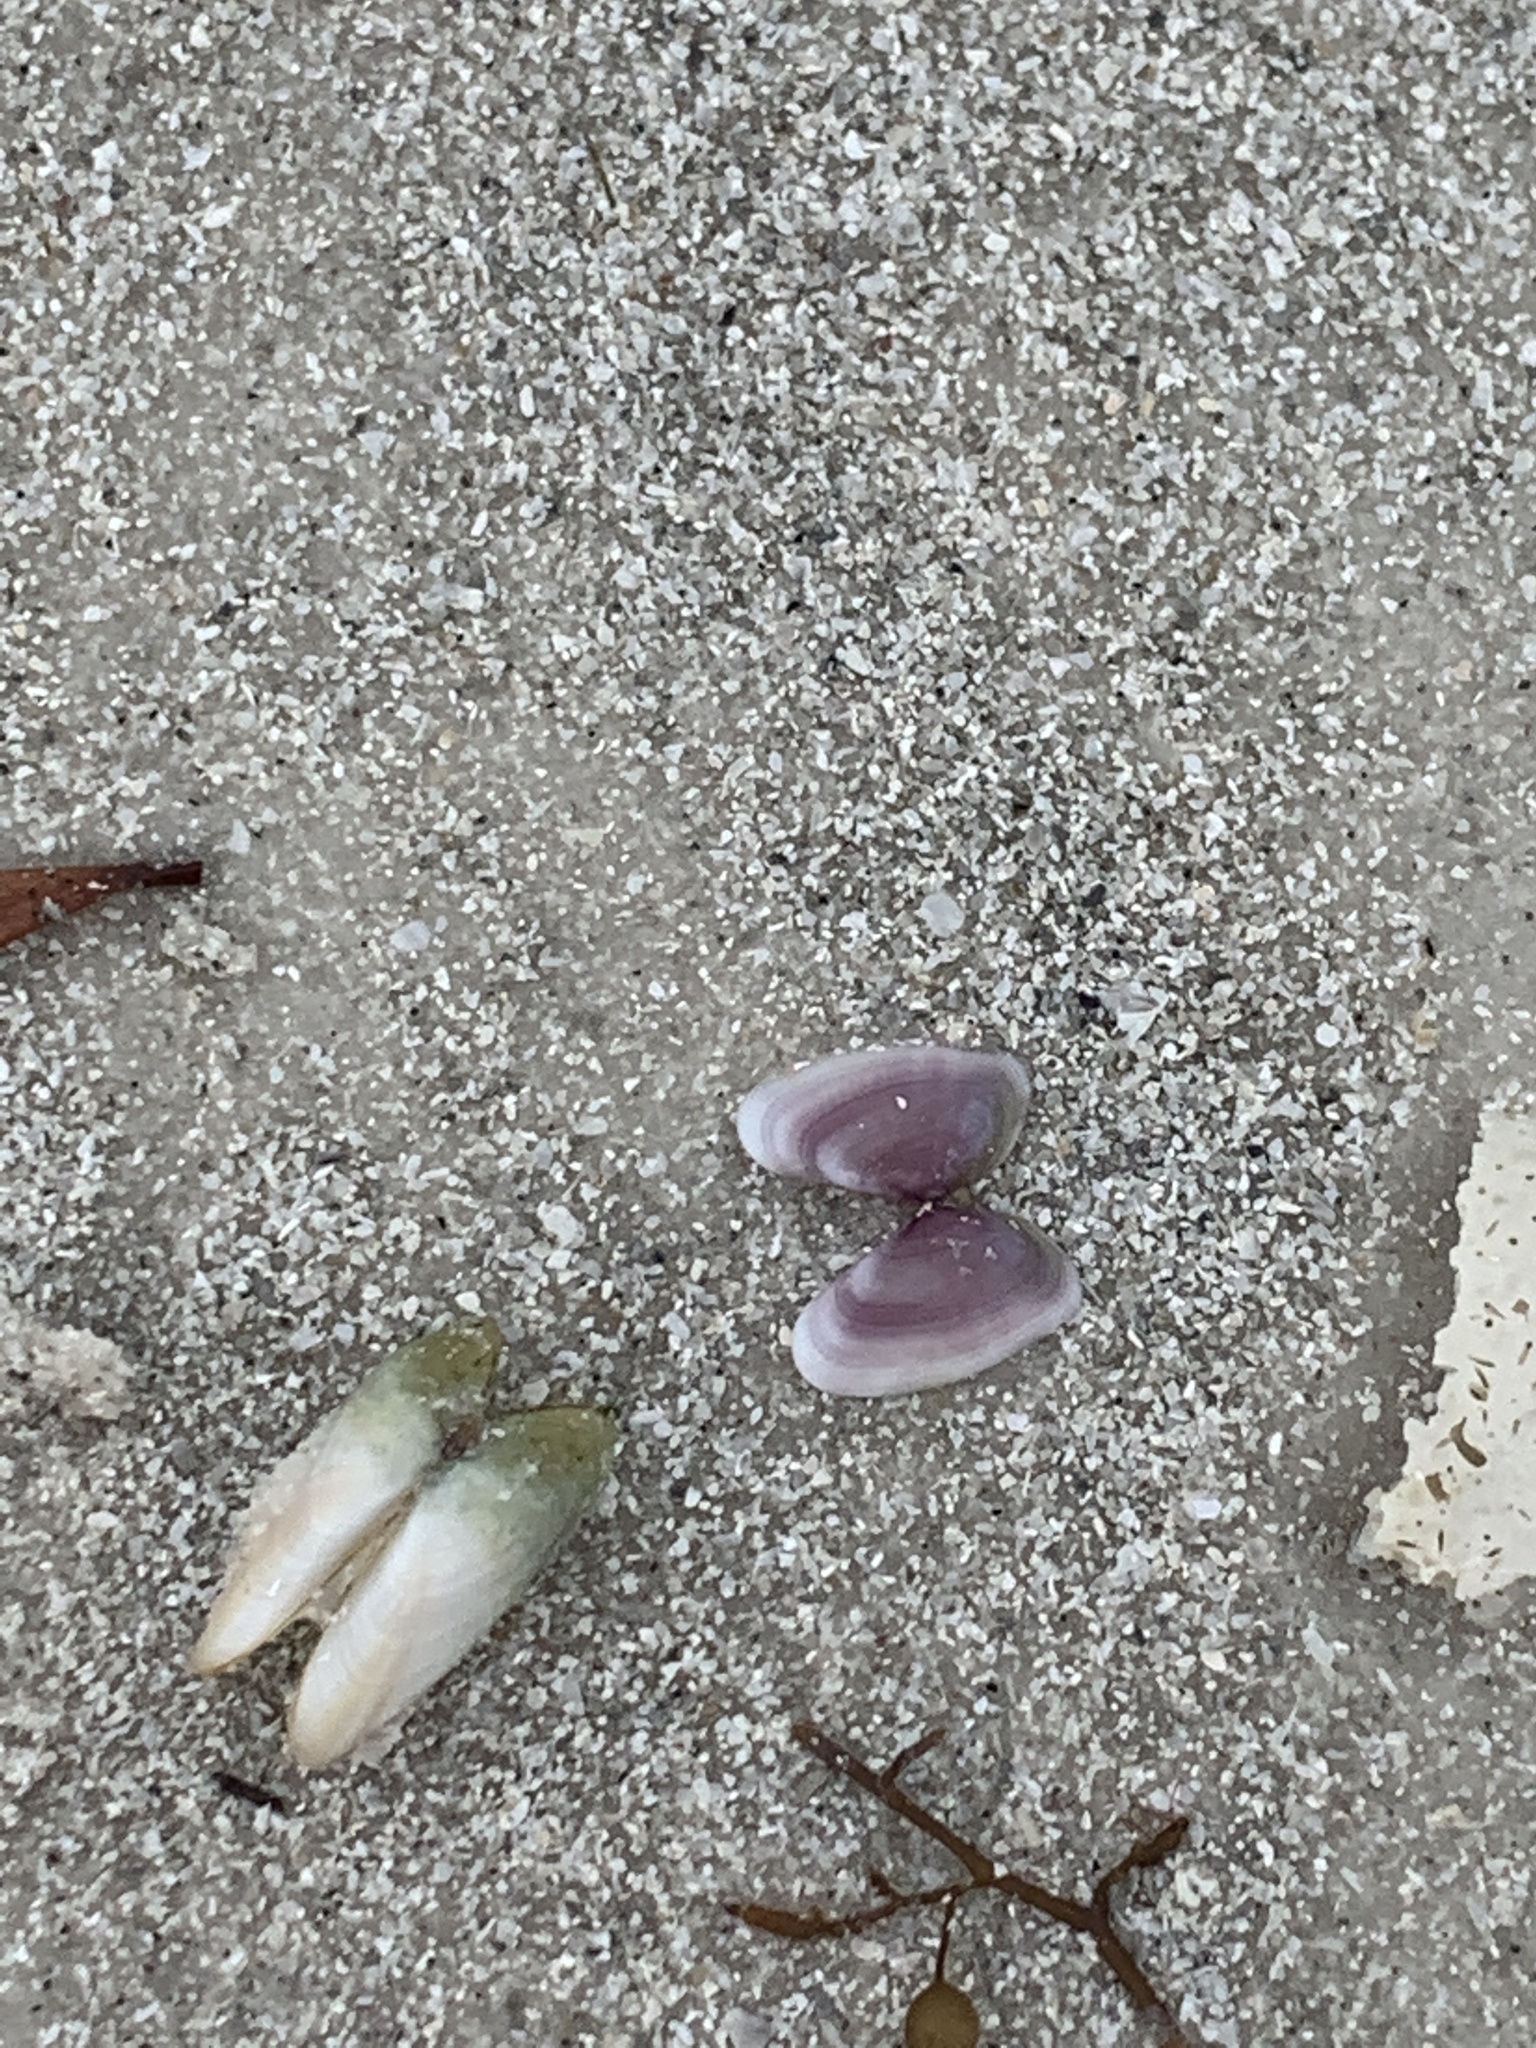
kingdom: Animalia
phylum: Mollusca
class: Bivalvia
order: Cardiida
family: Donacidae
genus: Donax
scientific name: Donax variabilis
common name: Butterfly shell
